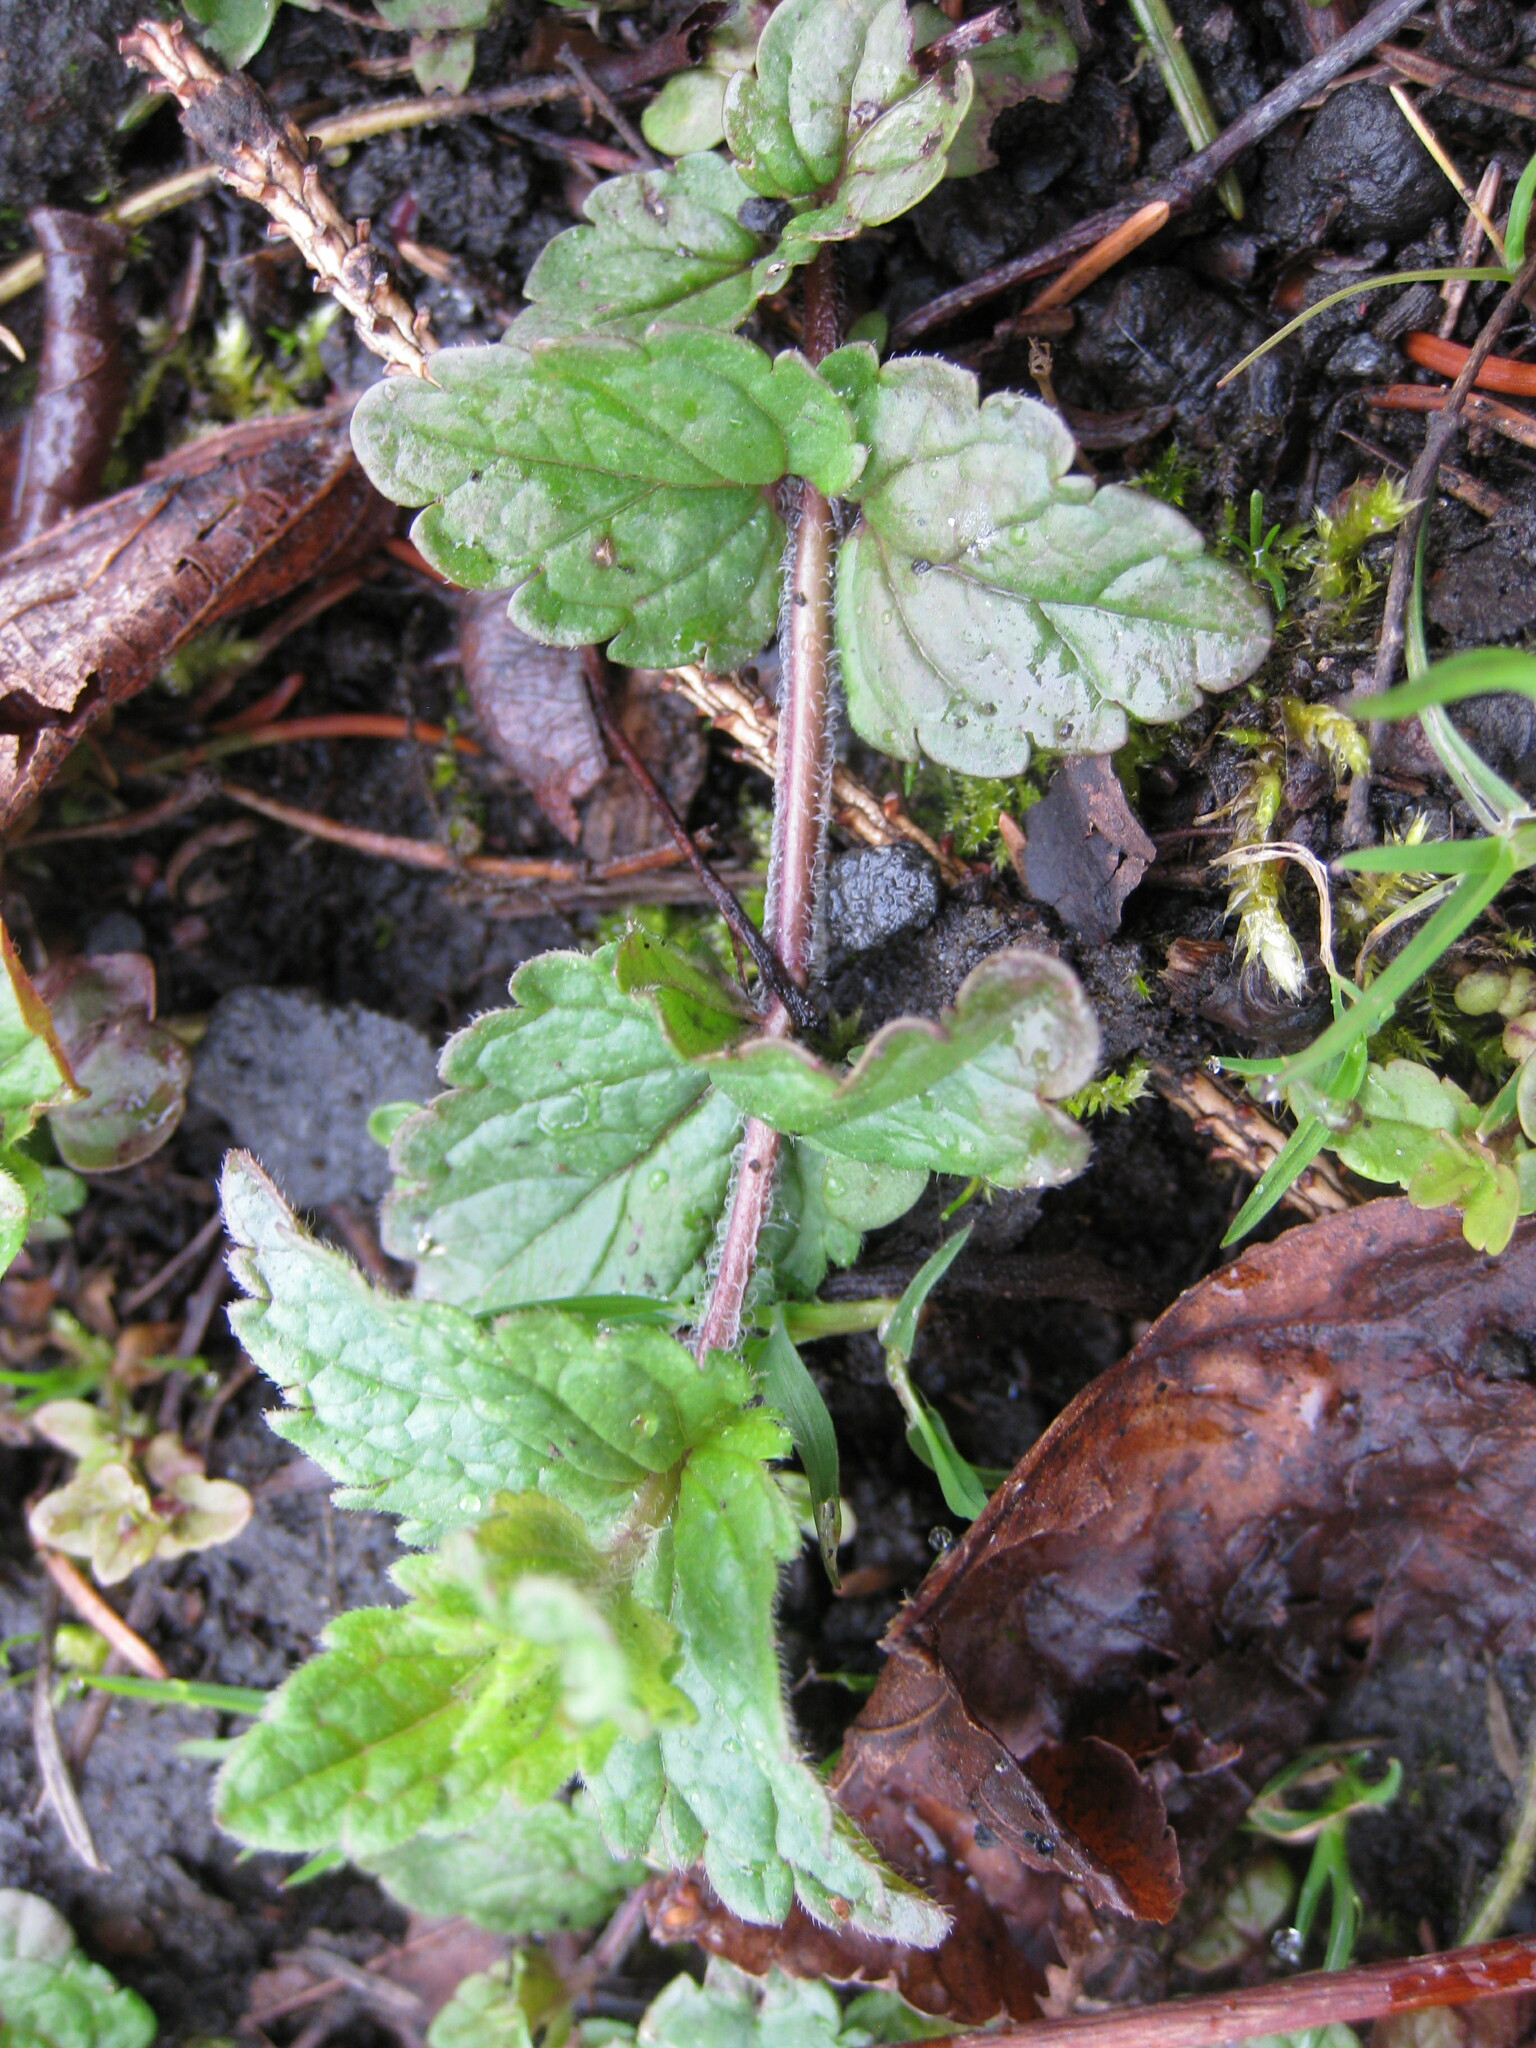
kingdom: Plantae
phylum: Tracheophyta
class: Magnoliopsida
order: Lamiales
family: Plantaginaceae
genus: Veronica
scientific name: Veronica chamaedrys
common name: Germander speedwell
